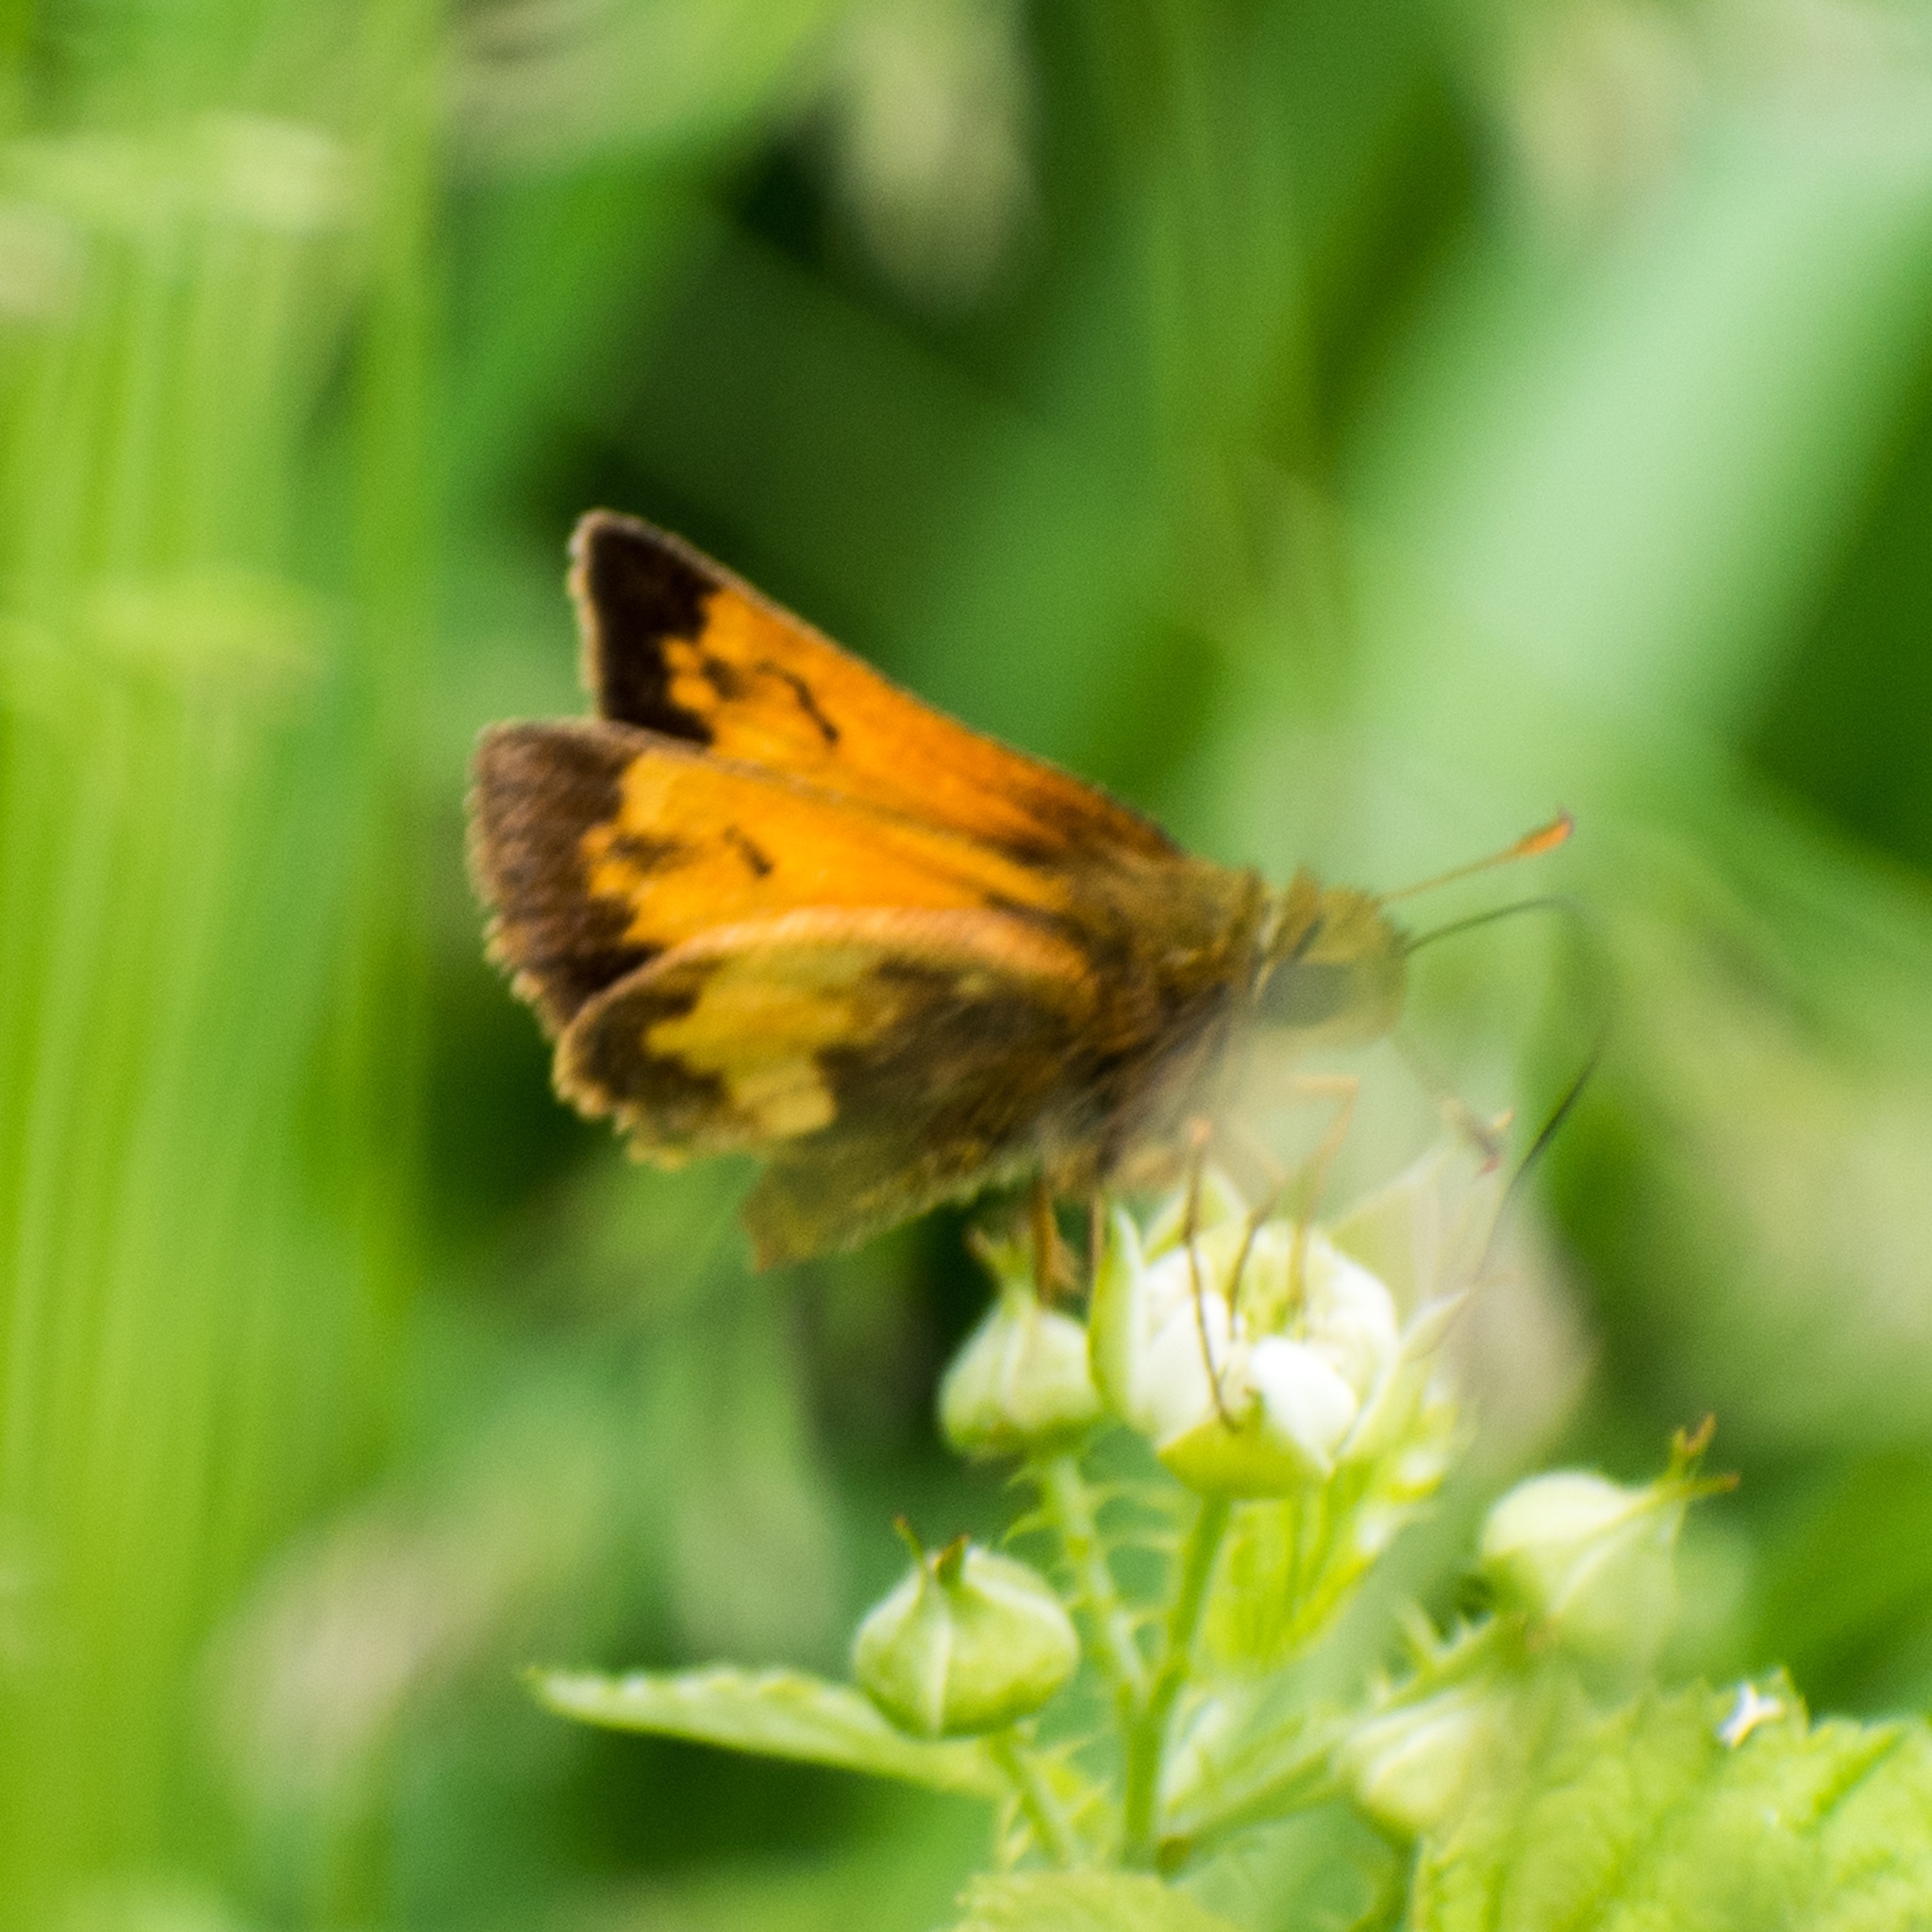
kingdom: Animalia
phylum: Arthropoda
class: Insecta
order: Lepidoptera
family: Hesperiidae
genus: Lon
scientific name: Lon hobomok
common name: Hobomok skipper
